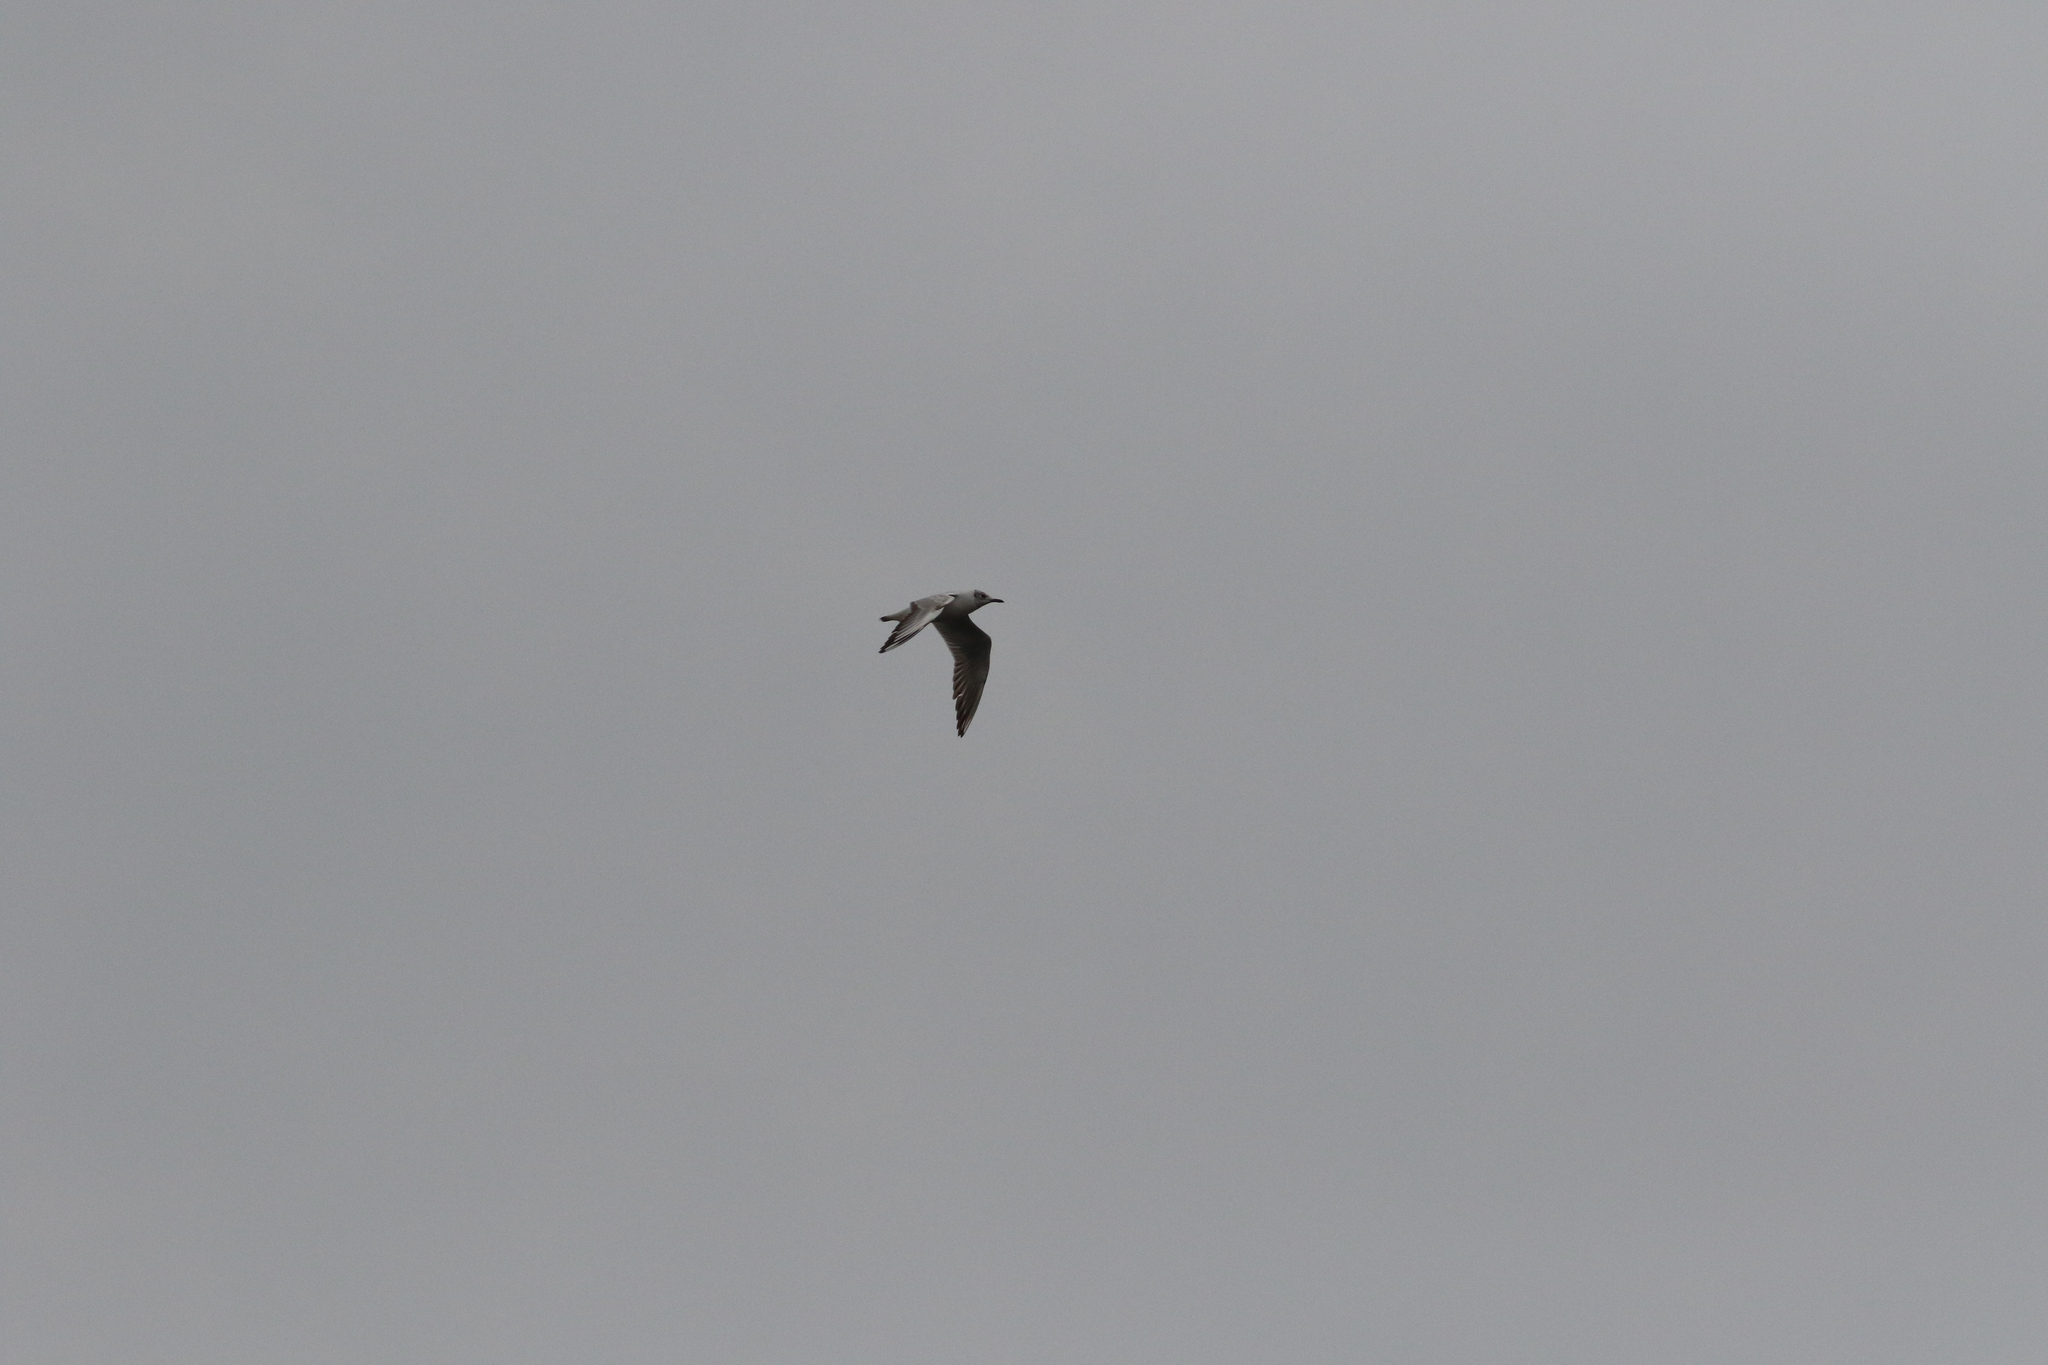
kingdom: Animalia
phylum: Chordata
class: Aves
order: Charadriiformes
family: Laridae
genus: Chroicocephalus
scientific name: Chroicocephalus ridibundus
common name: Black-headed gull
